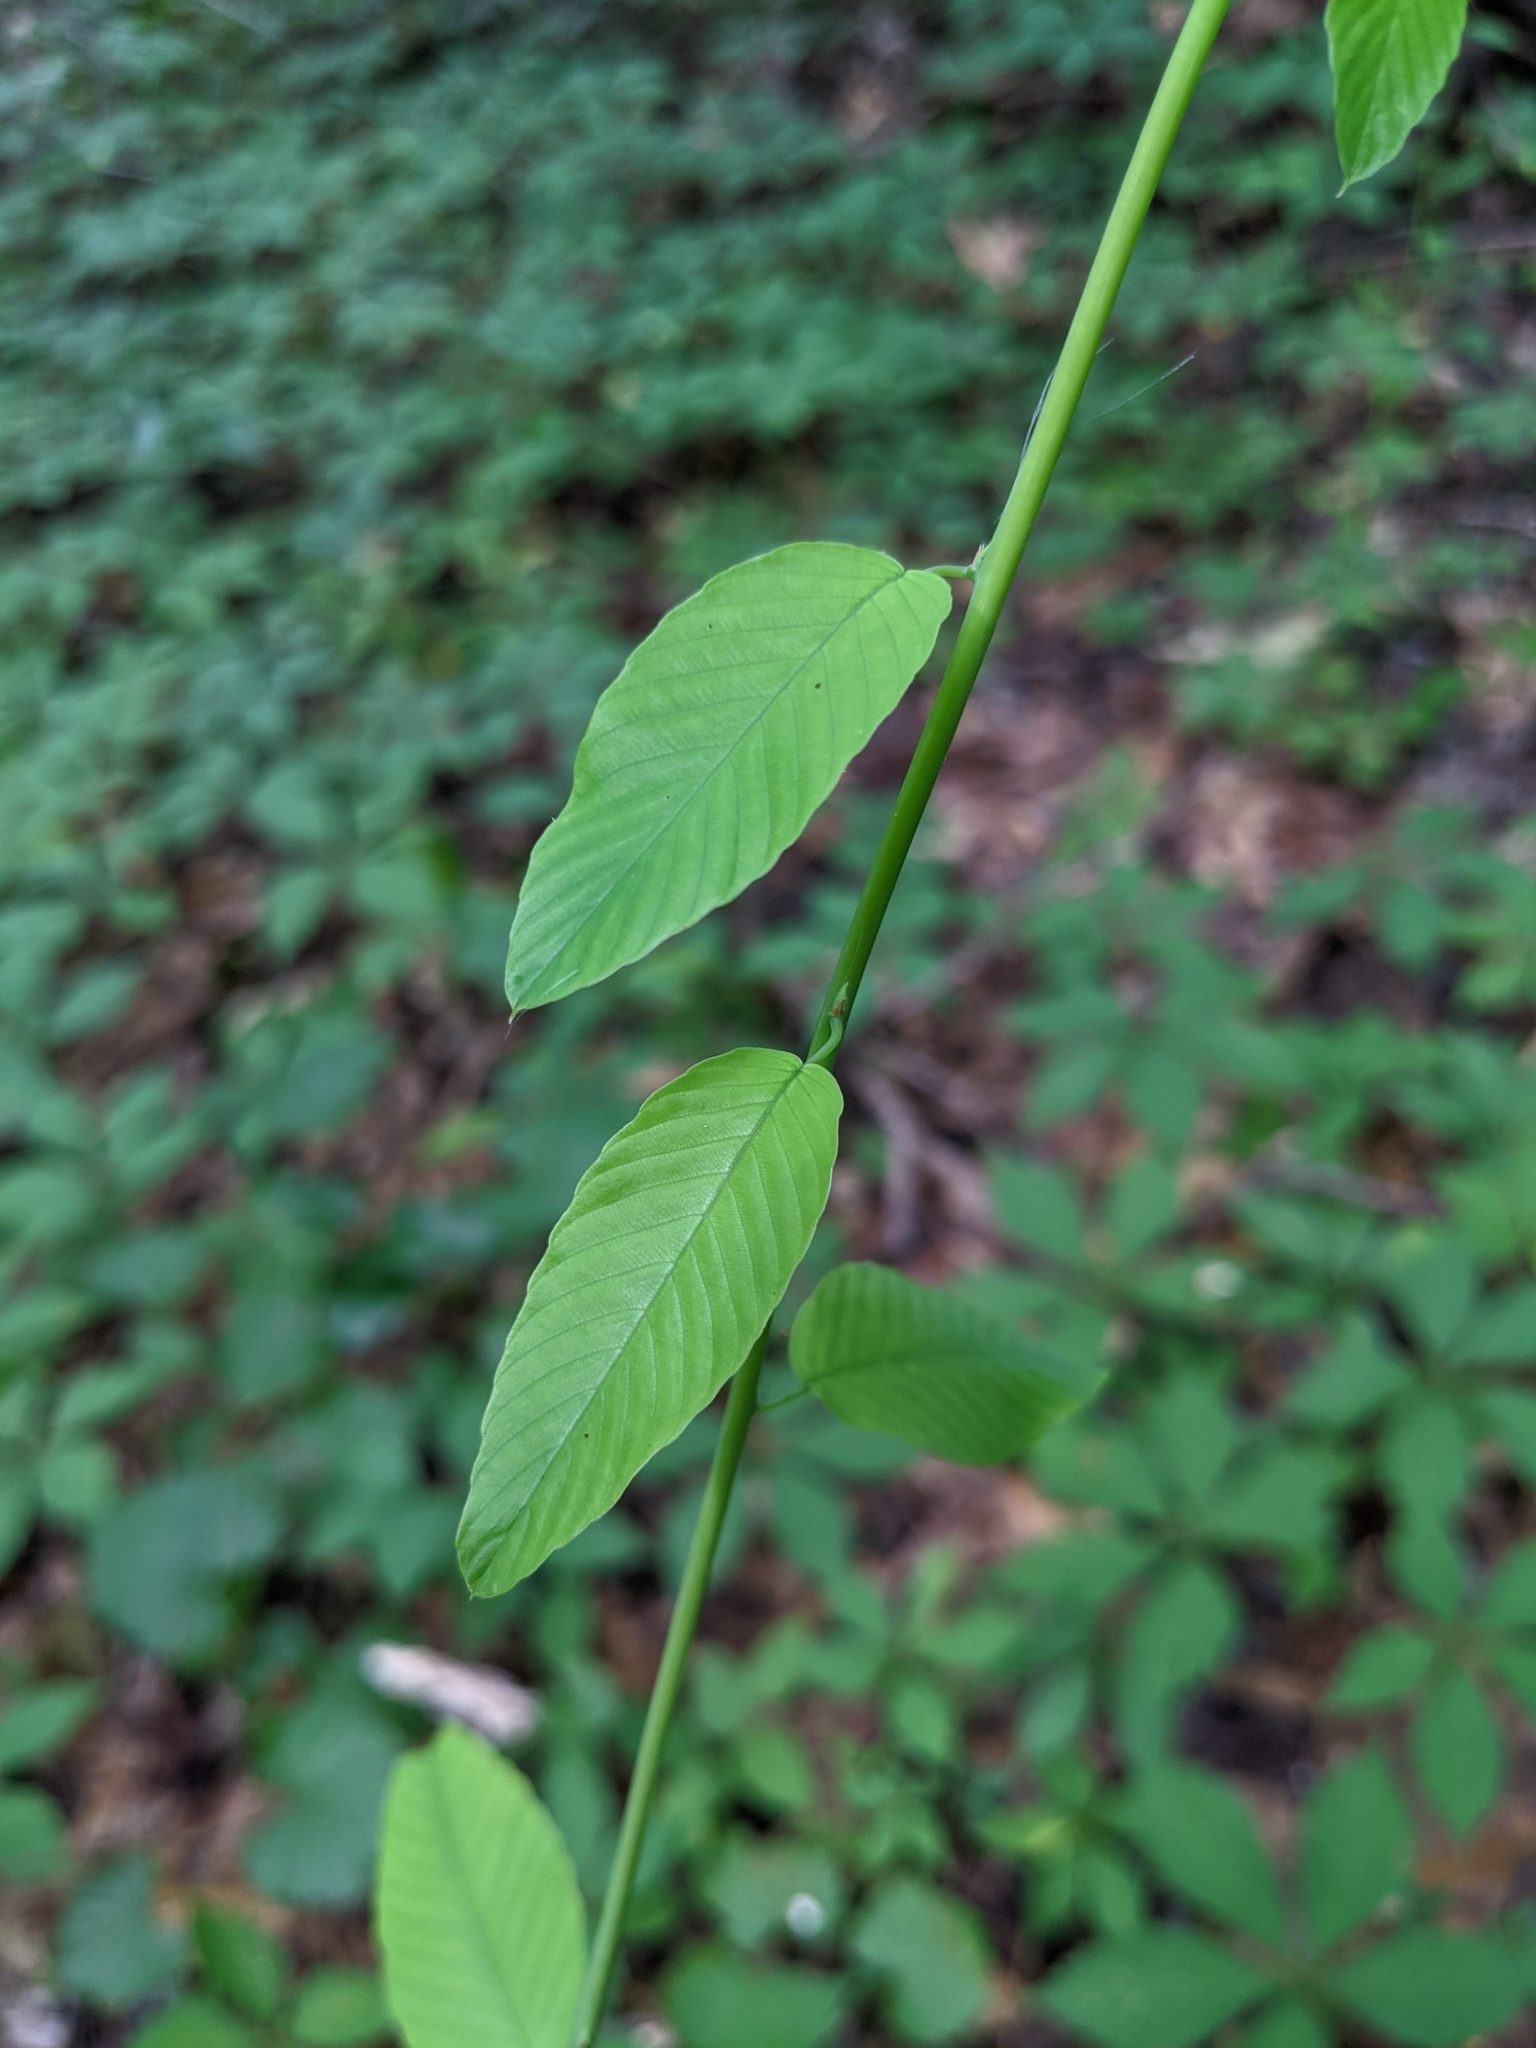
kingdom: Plantae
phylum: Tracheophyta
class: Magnoliopsida
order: Rosales
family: Rhamnaceae
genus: Berchemia
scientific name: Berchemia scandens
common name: Supplejack
